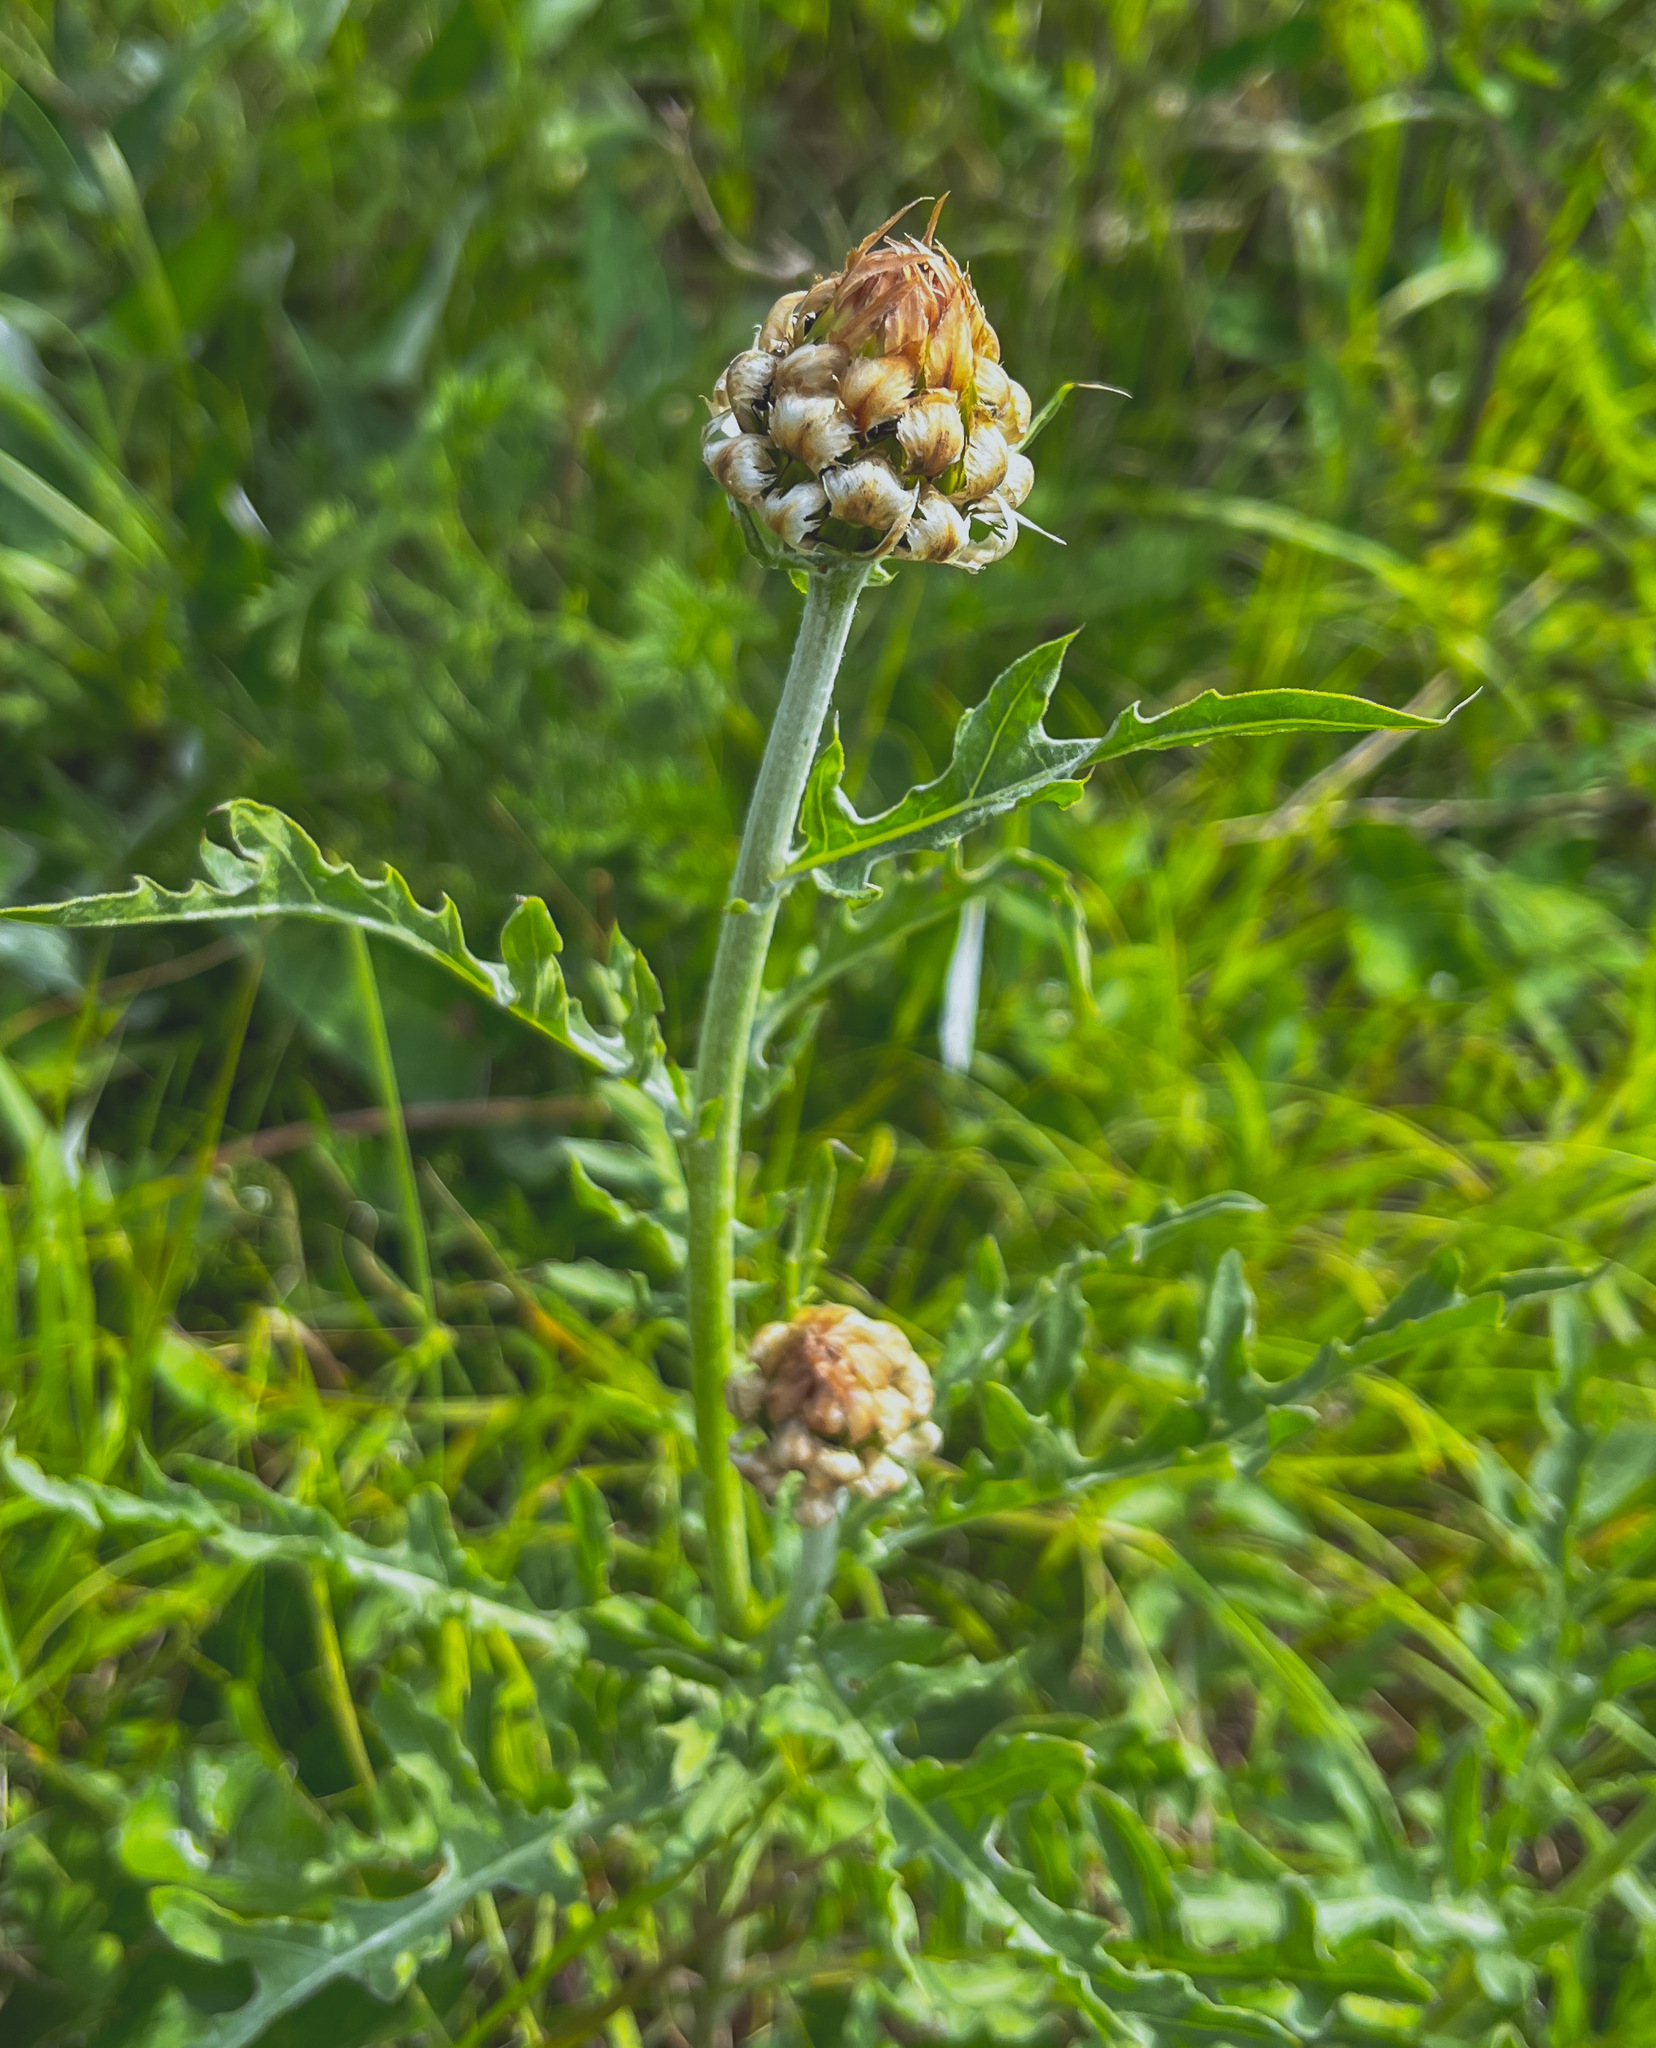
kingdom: Plantae
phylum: Tracheophyta
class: Magnoliopsida
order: Asterales
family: Asteraceae
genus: Leuzea
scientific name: Leuzea uniflora
